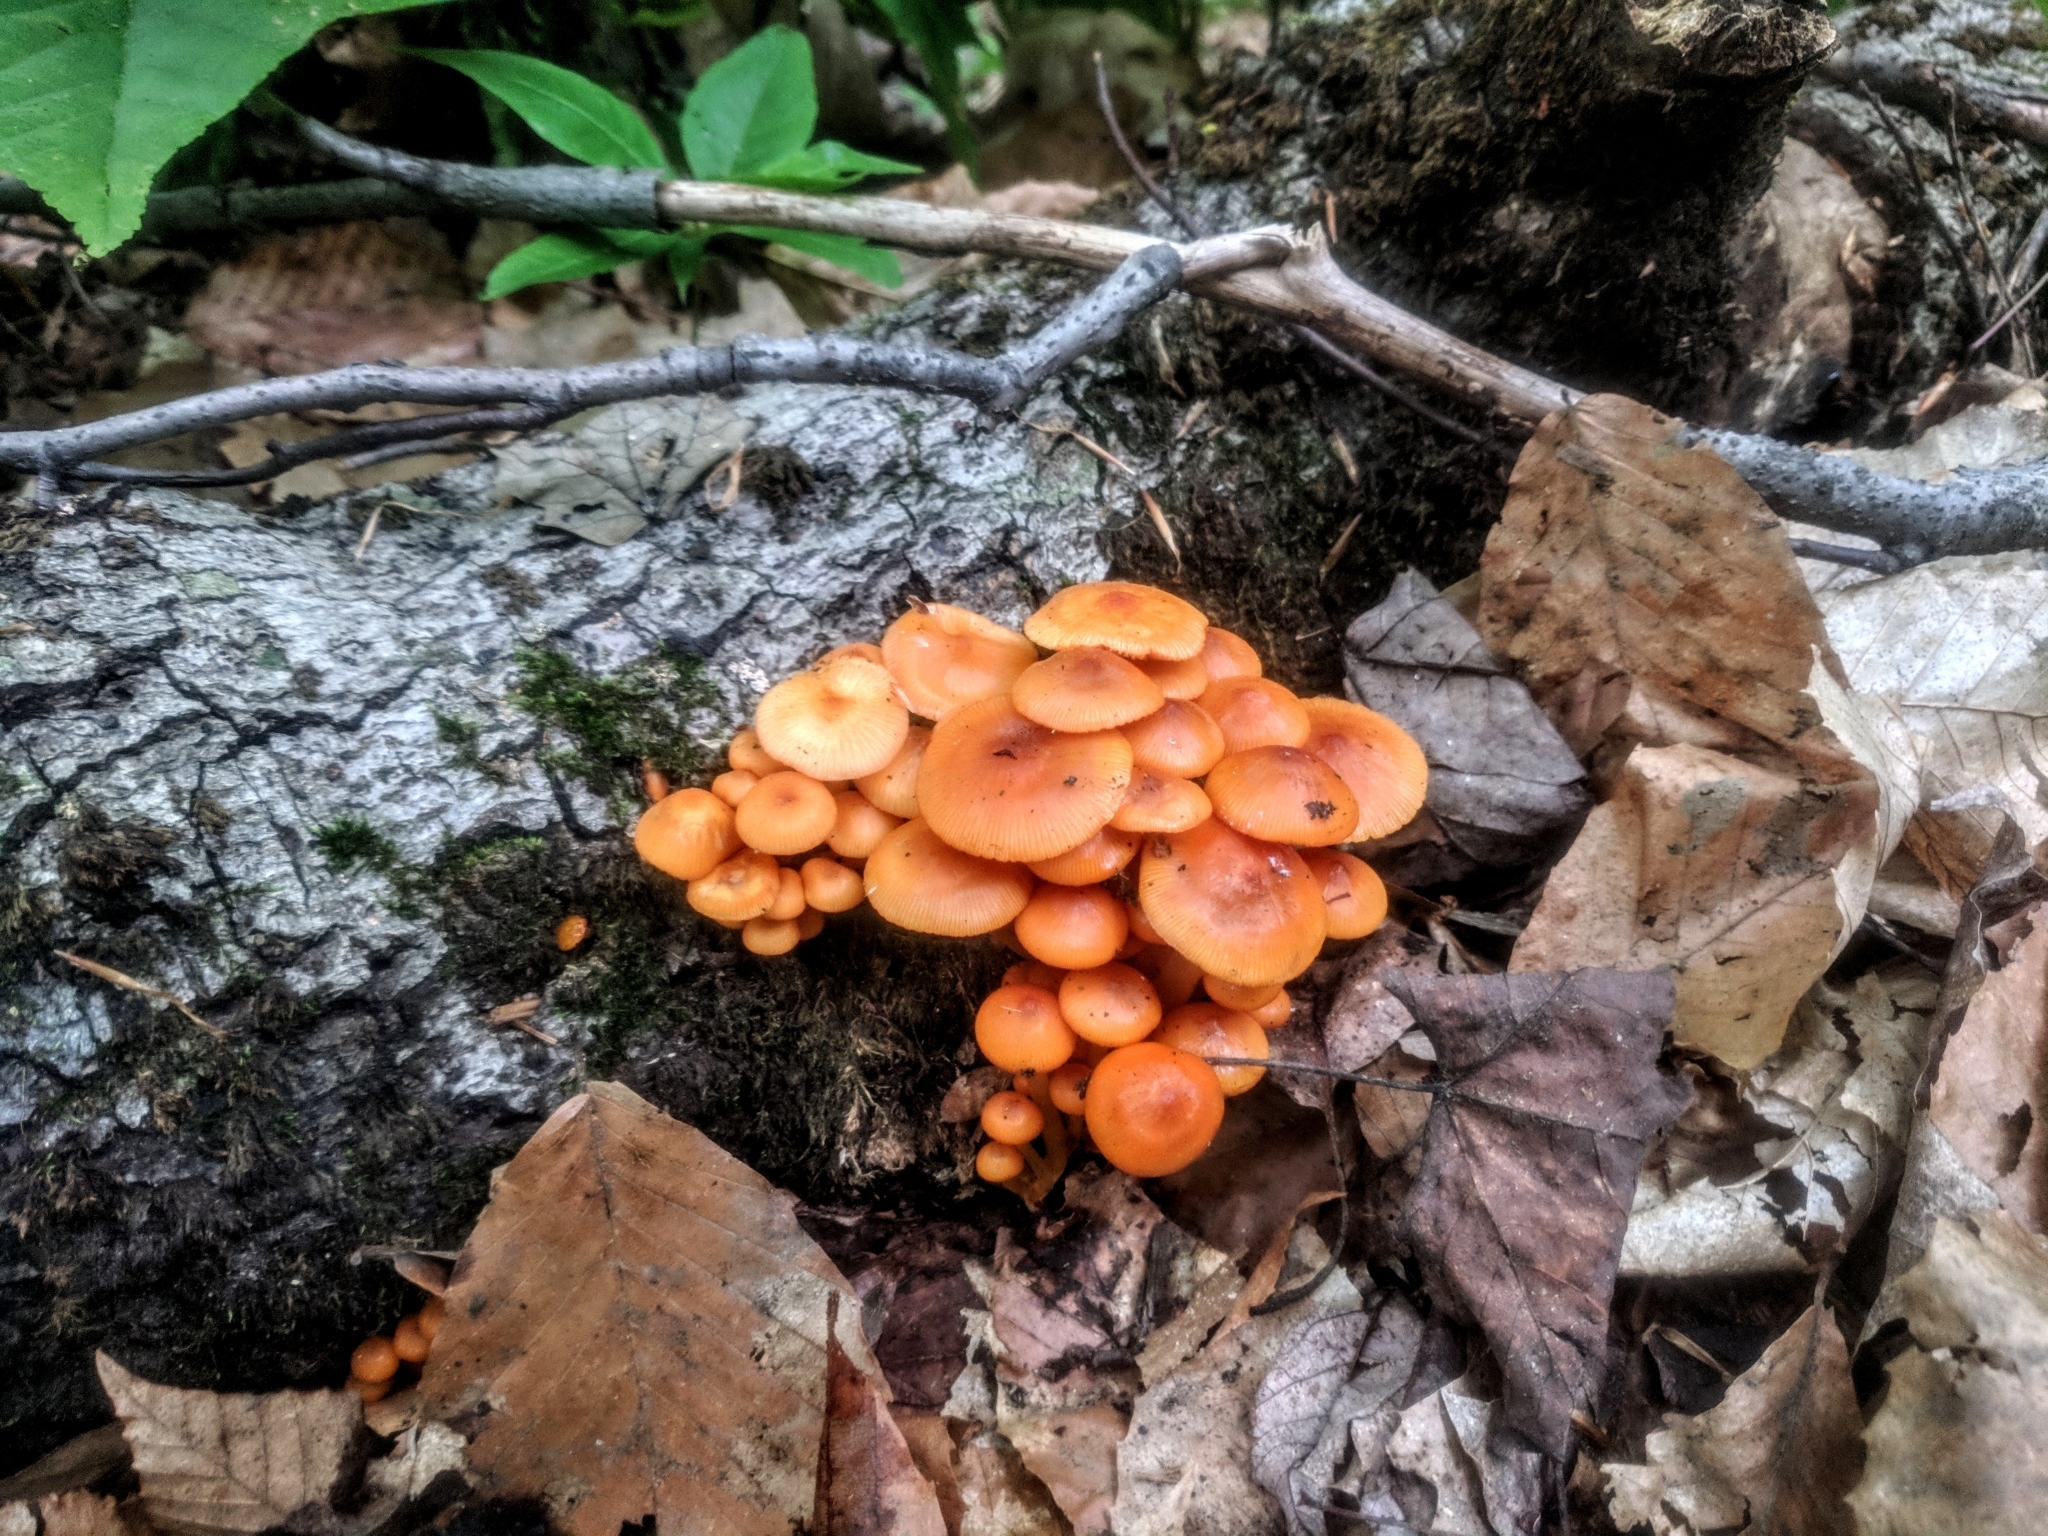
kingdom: Fungi
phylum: Basidiomycota
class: Agaricomycetes
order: Agaricales
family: Mycenaceae
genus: Mycena
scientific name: Mycena leaiana
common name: Orange mycena
